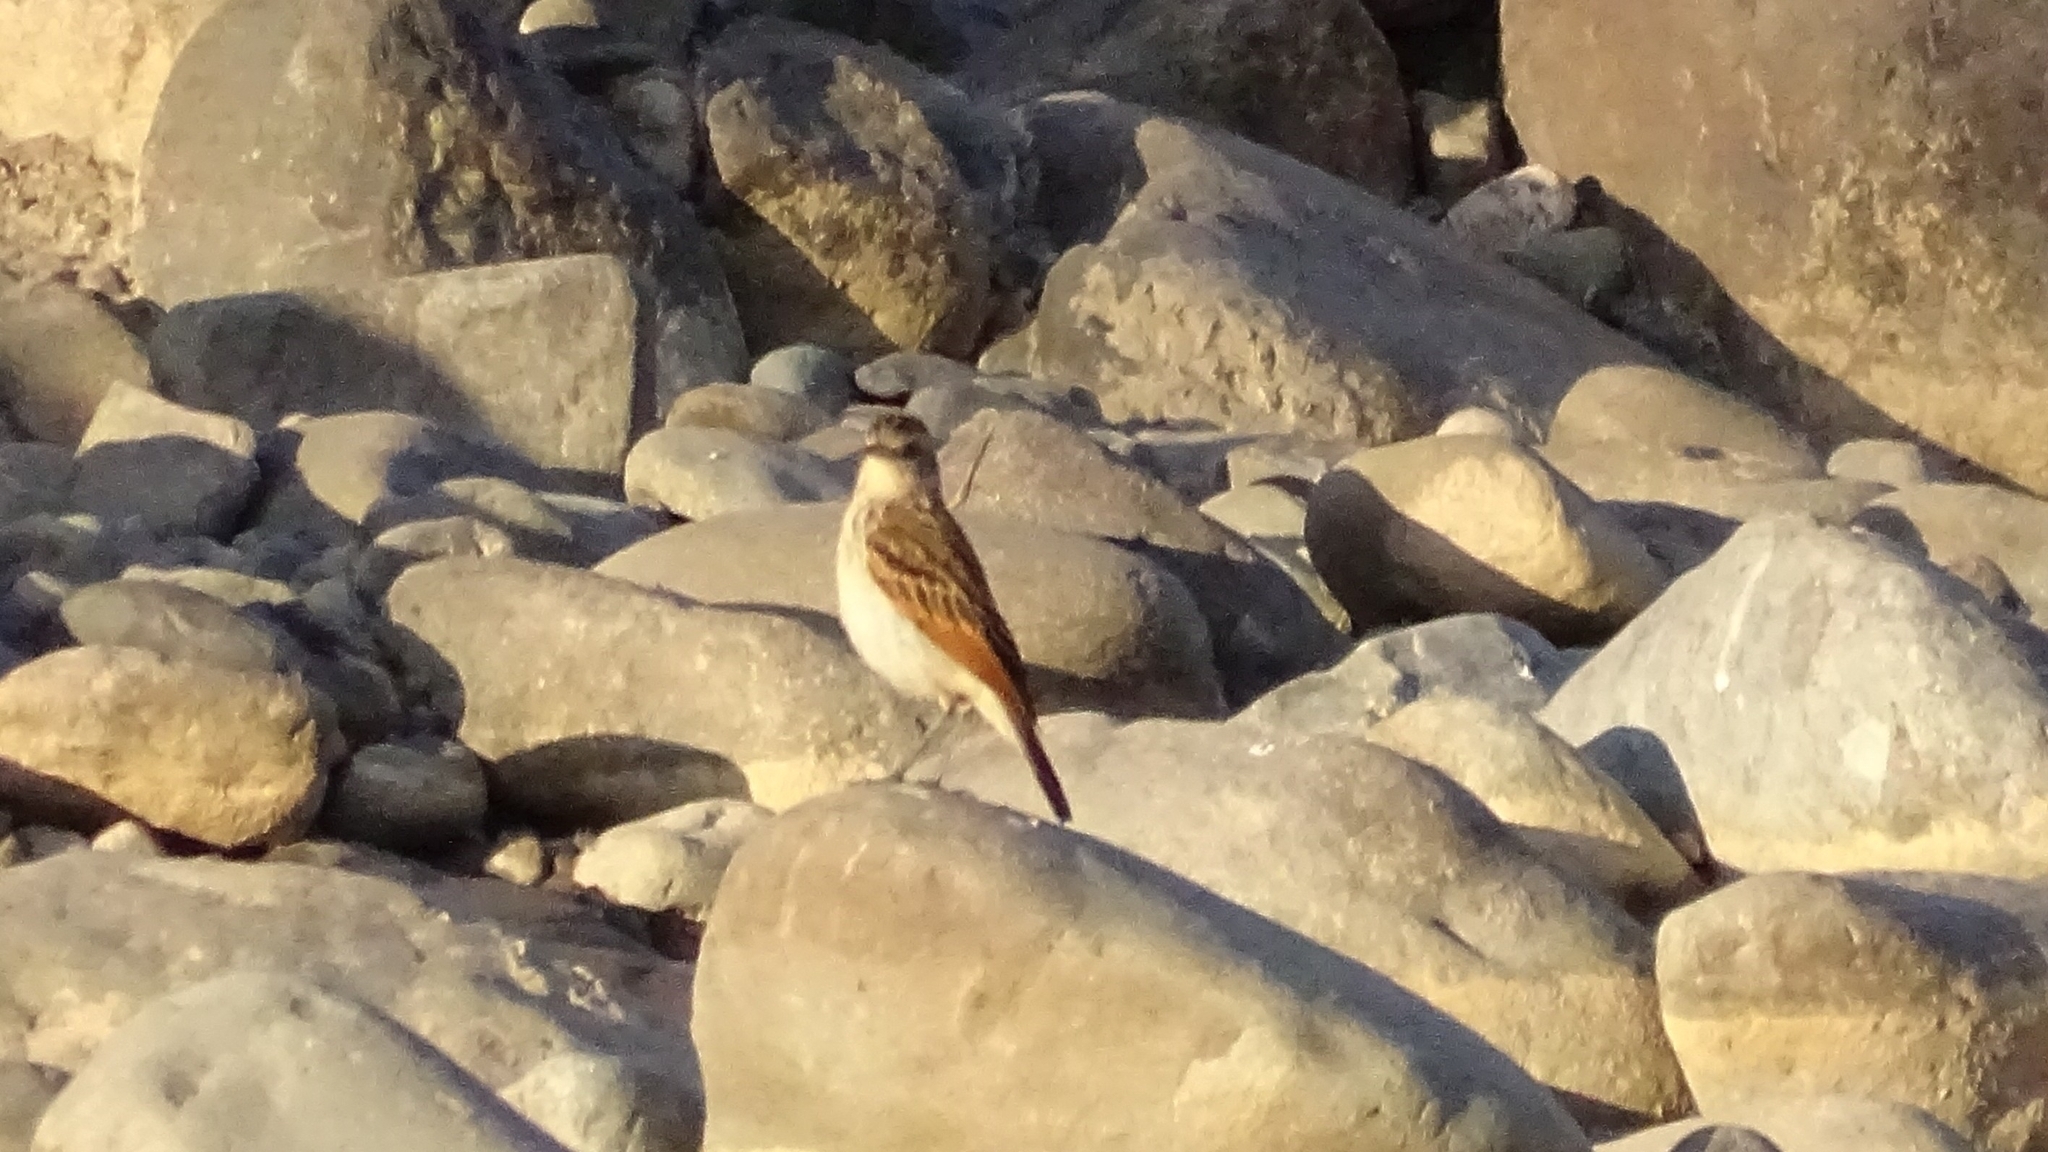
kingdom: Animalia
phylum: Chordata
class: Aves
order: Passeriformes
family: Tyrannidae
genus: Hymenops
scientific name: Hymenops perspicillatus
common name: Spectacled tyrant
